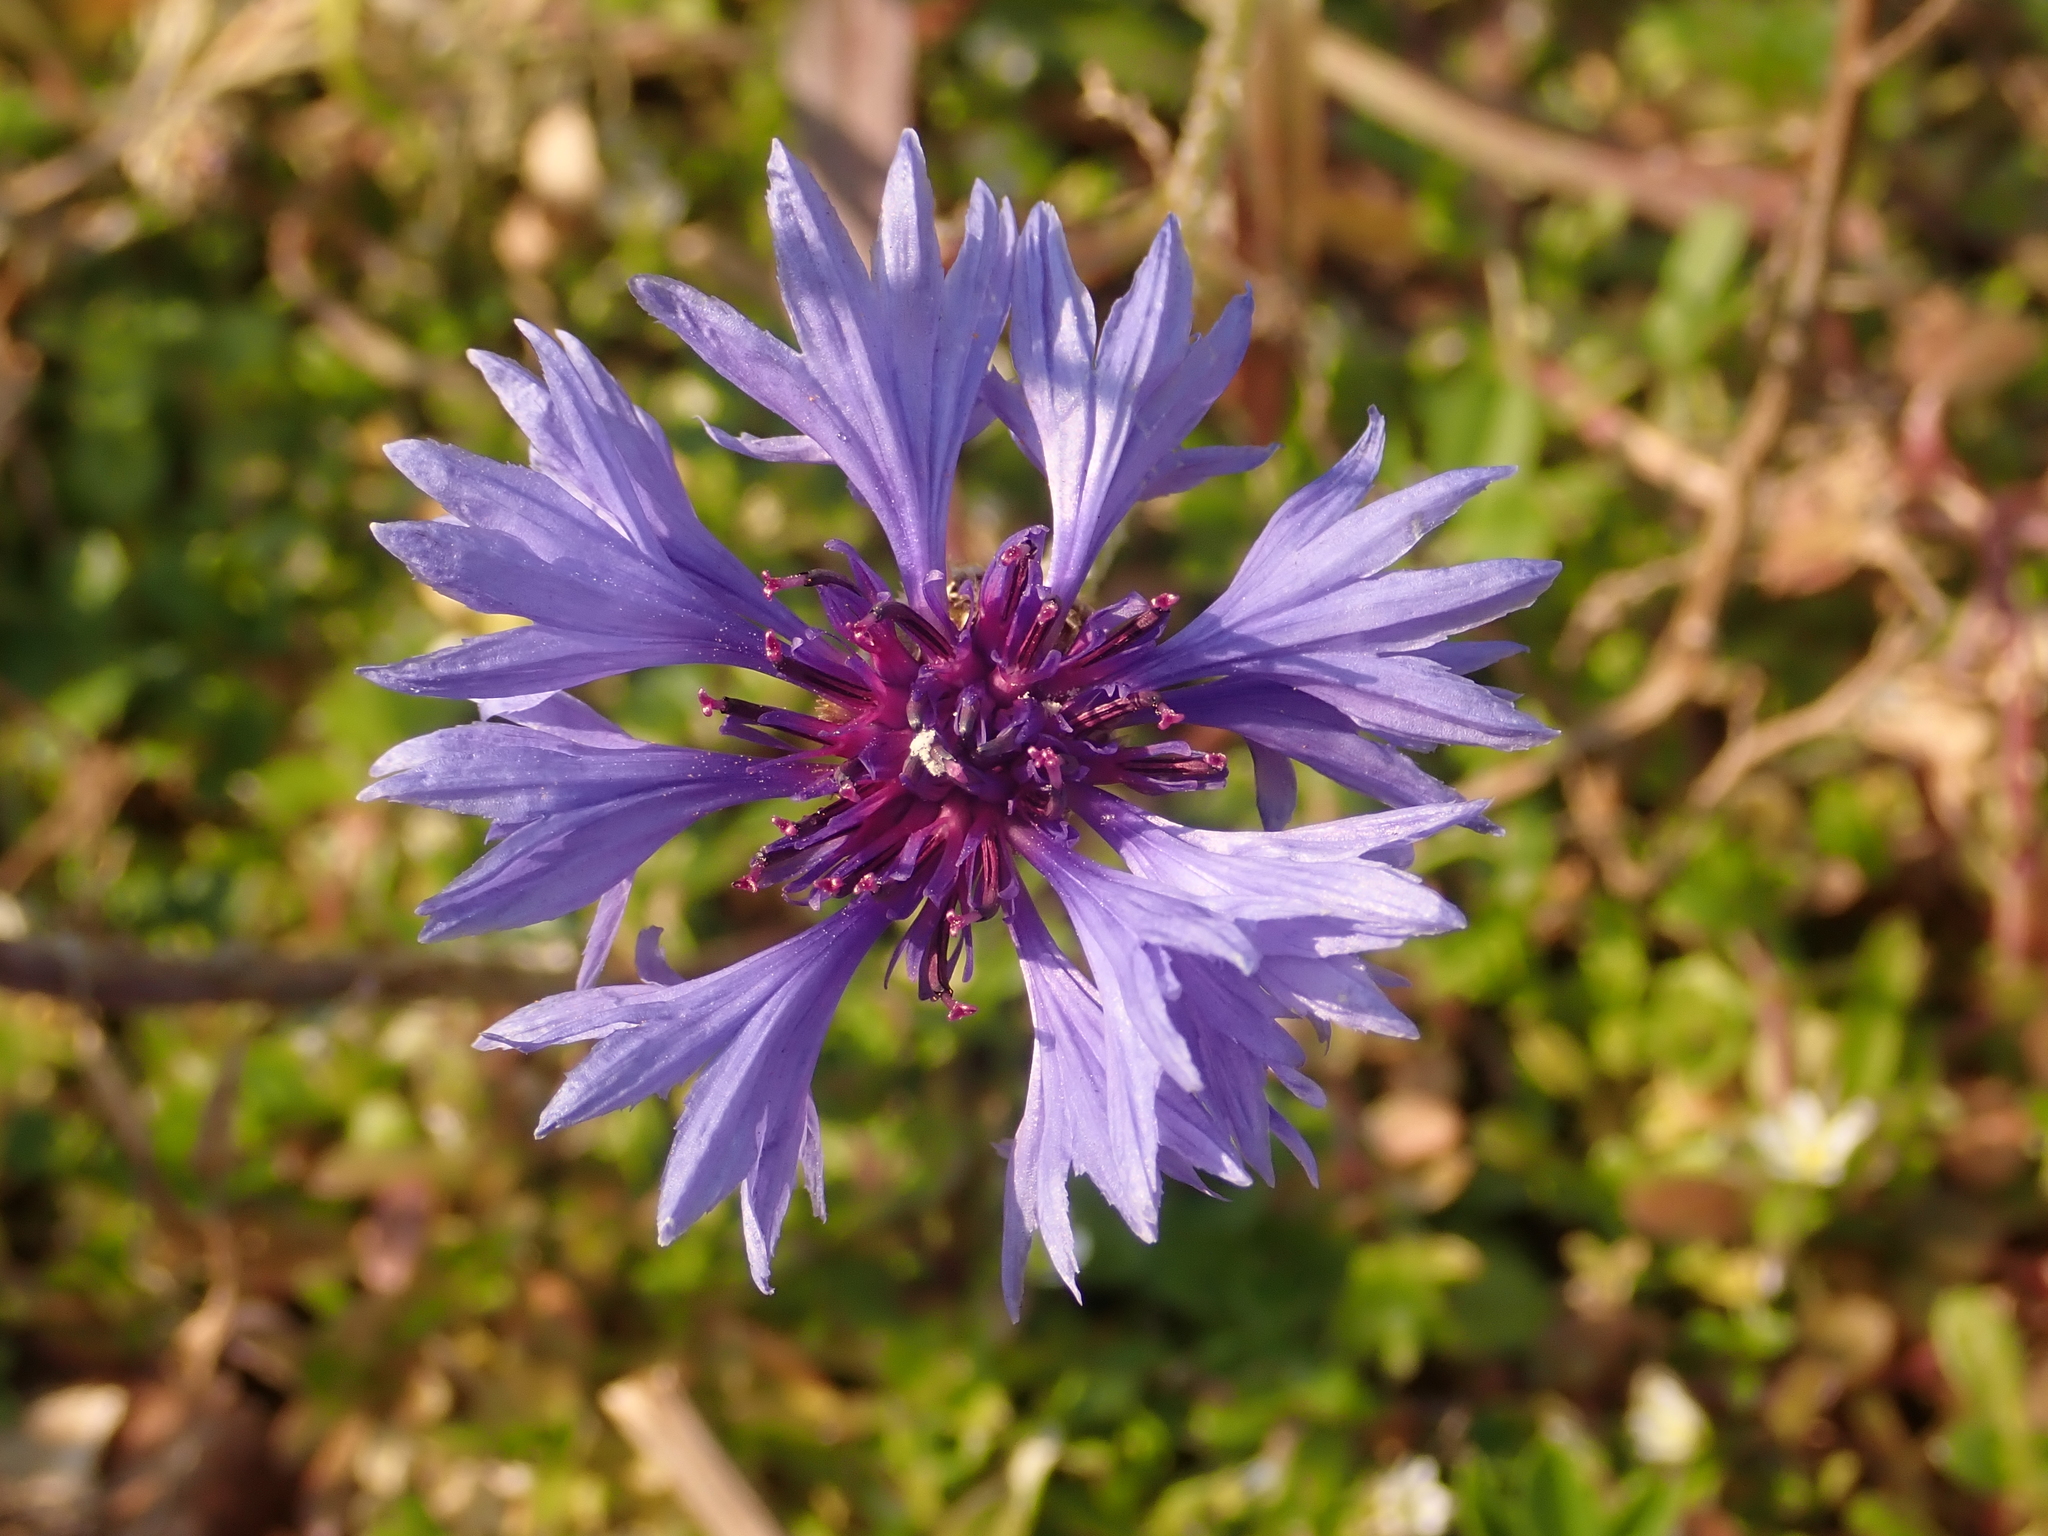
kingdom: Plantae
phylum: Tracheophyta
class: Magnoliopsida
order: Asterales
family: Asteraceae
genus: Centaurea
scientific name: Centaurea cyanus
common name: Cornflower
